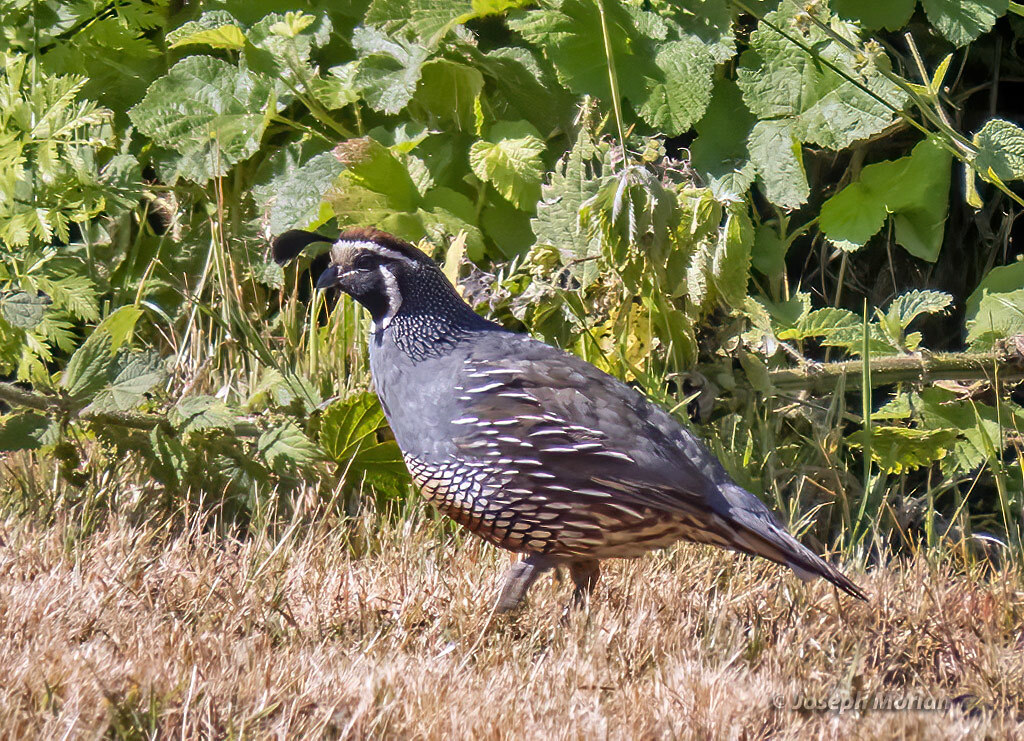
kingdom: Animalia
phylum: Chordata
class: Aves
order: Galliformes
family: Odontophoridae
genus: Callipepla
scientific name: Callipepla californica
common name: California quail
